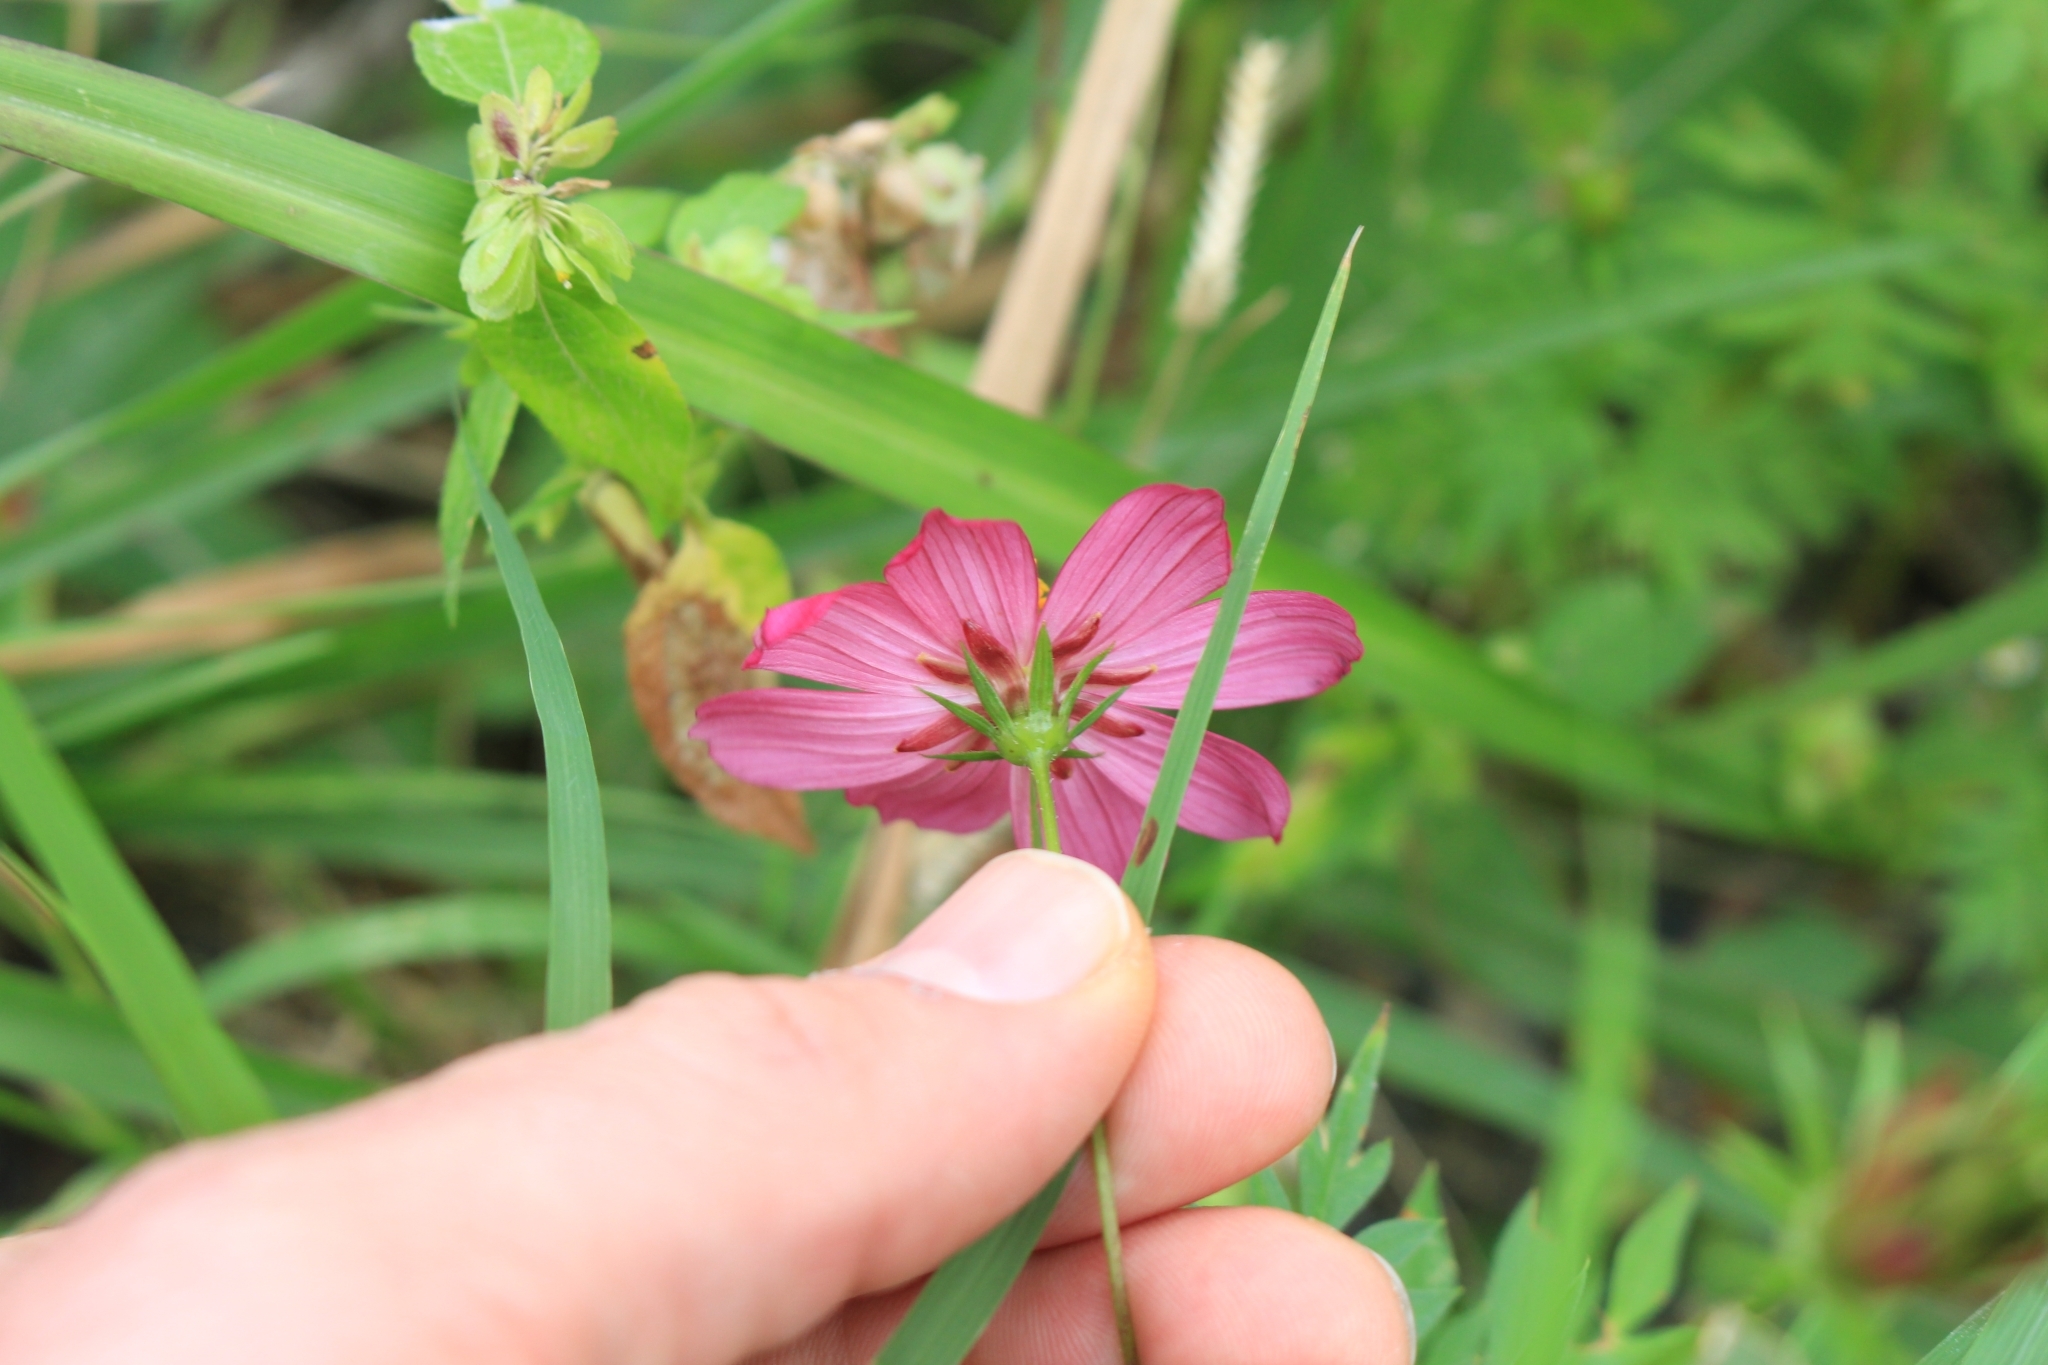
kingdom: Plantae
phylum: Tracheophyta
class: Magnoliopsida
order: Asterales
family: Asteraceae
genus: Cosmos
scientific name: Cosmos caudatus
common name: Wild cosmos
